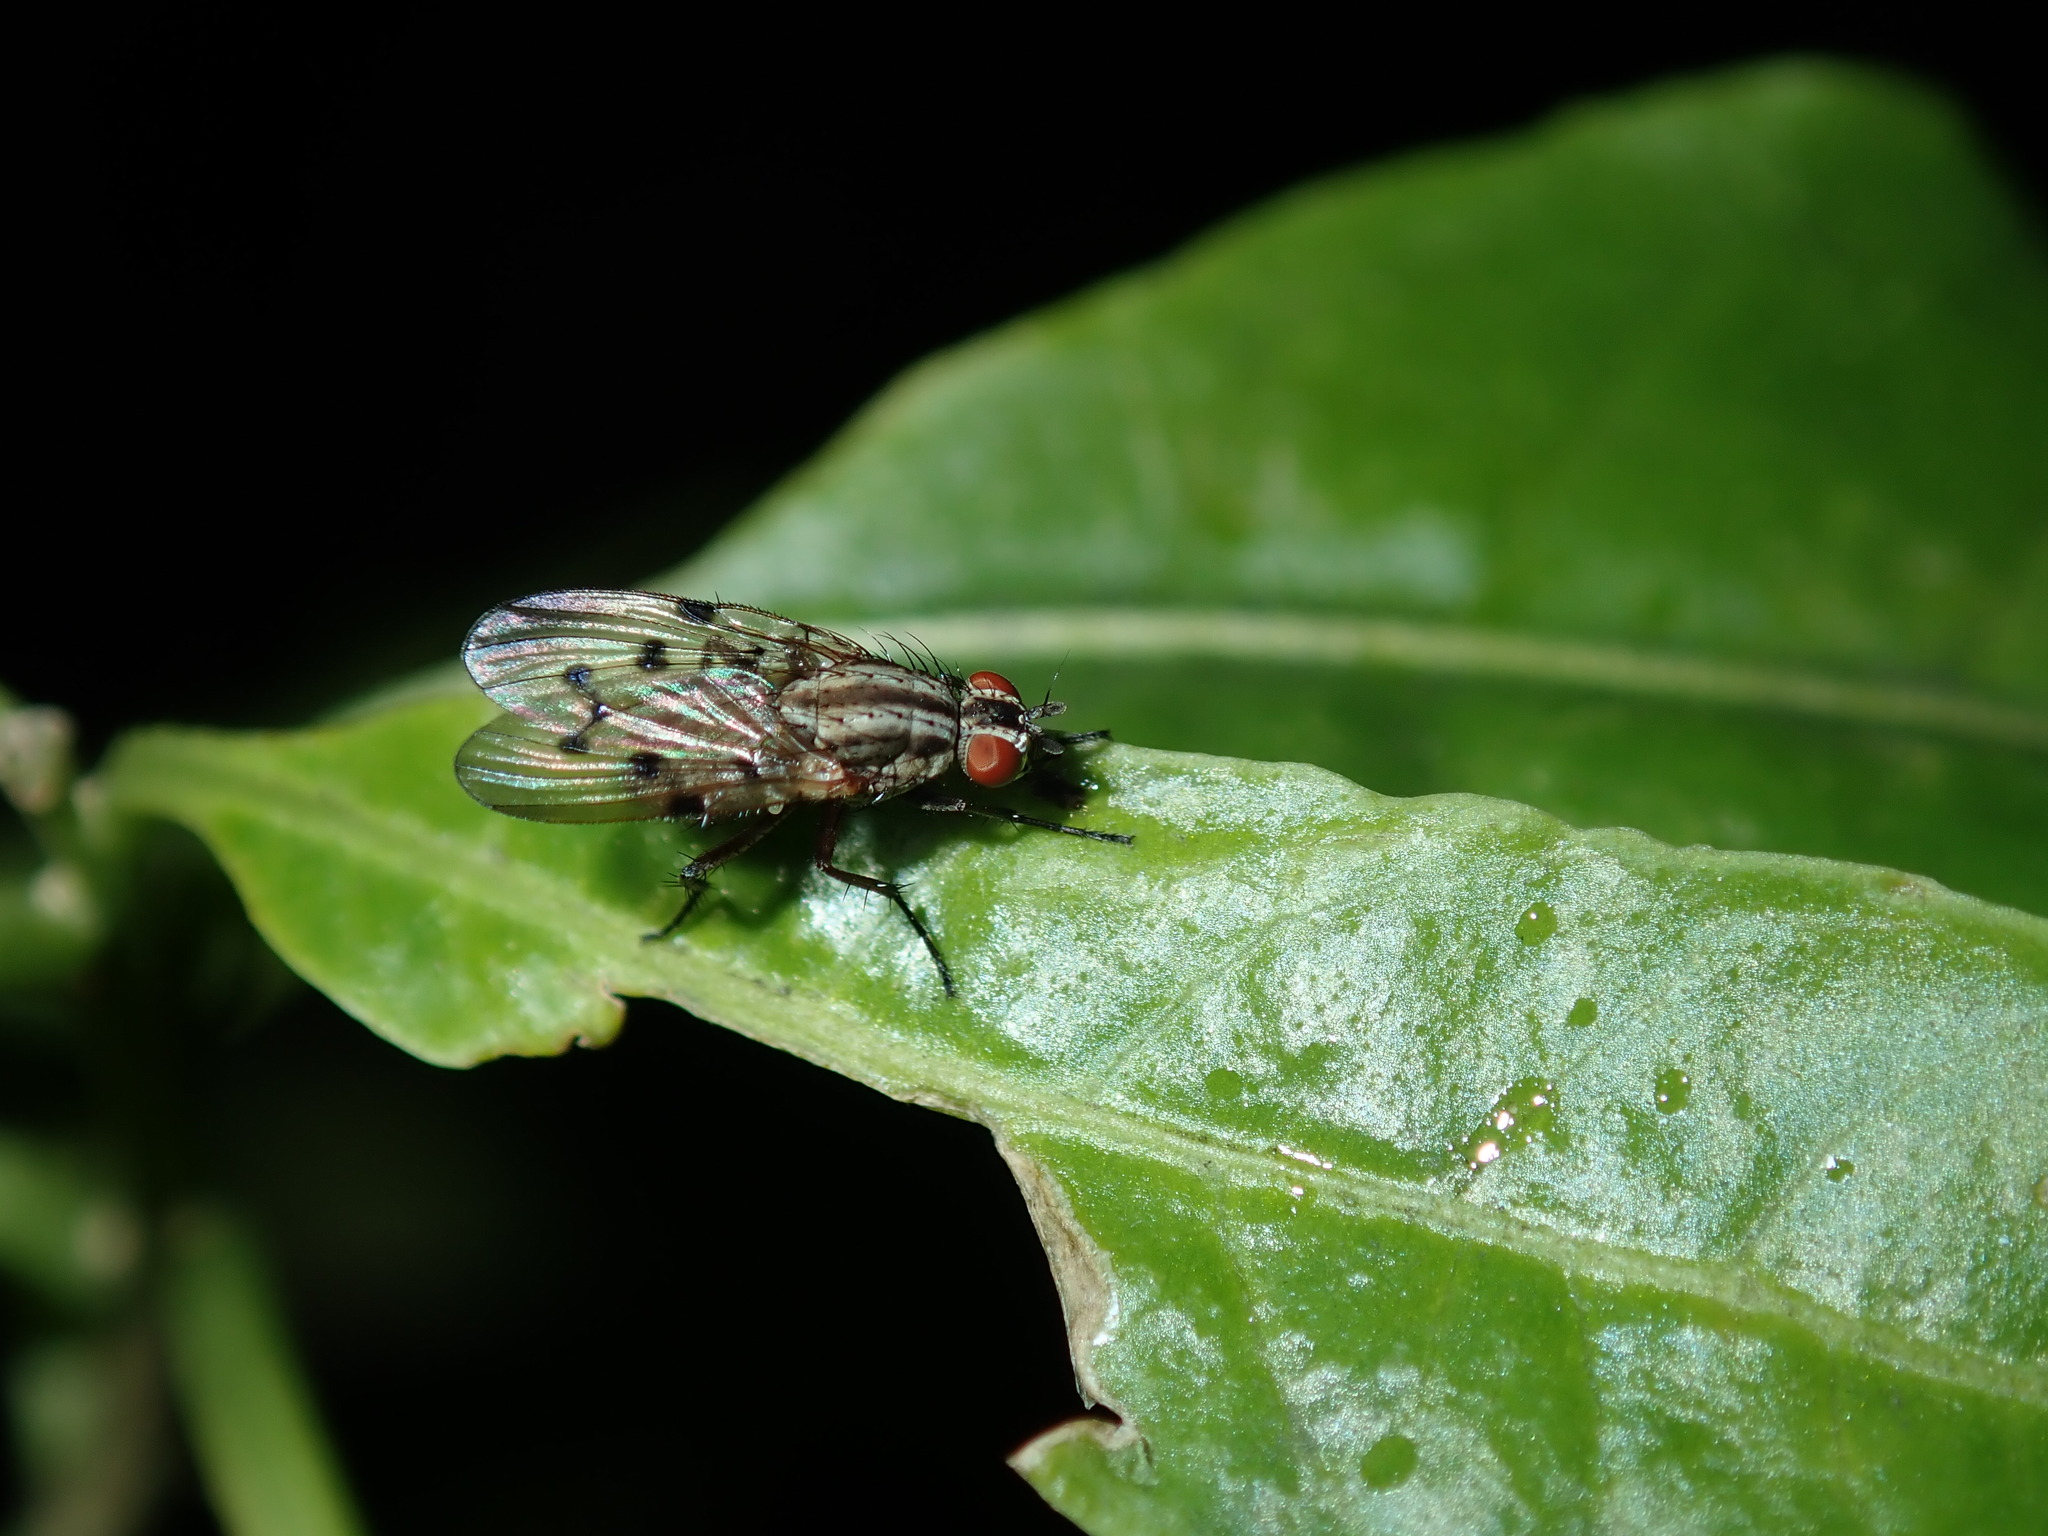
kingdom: Animalia
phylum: Arthropoda
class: Insecta
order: Diptera
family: Anthomyiidae
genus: Anthomyia
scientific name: Anthomyia punctipennis
